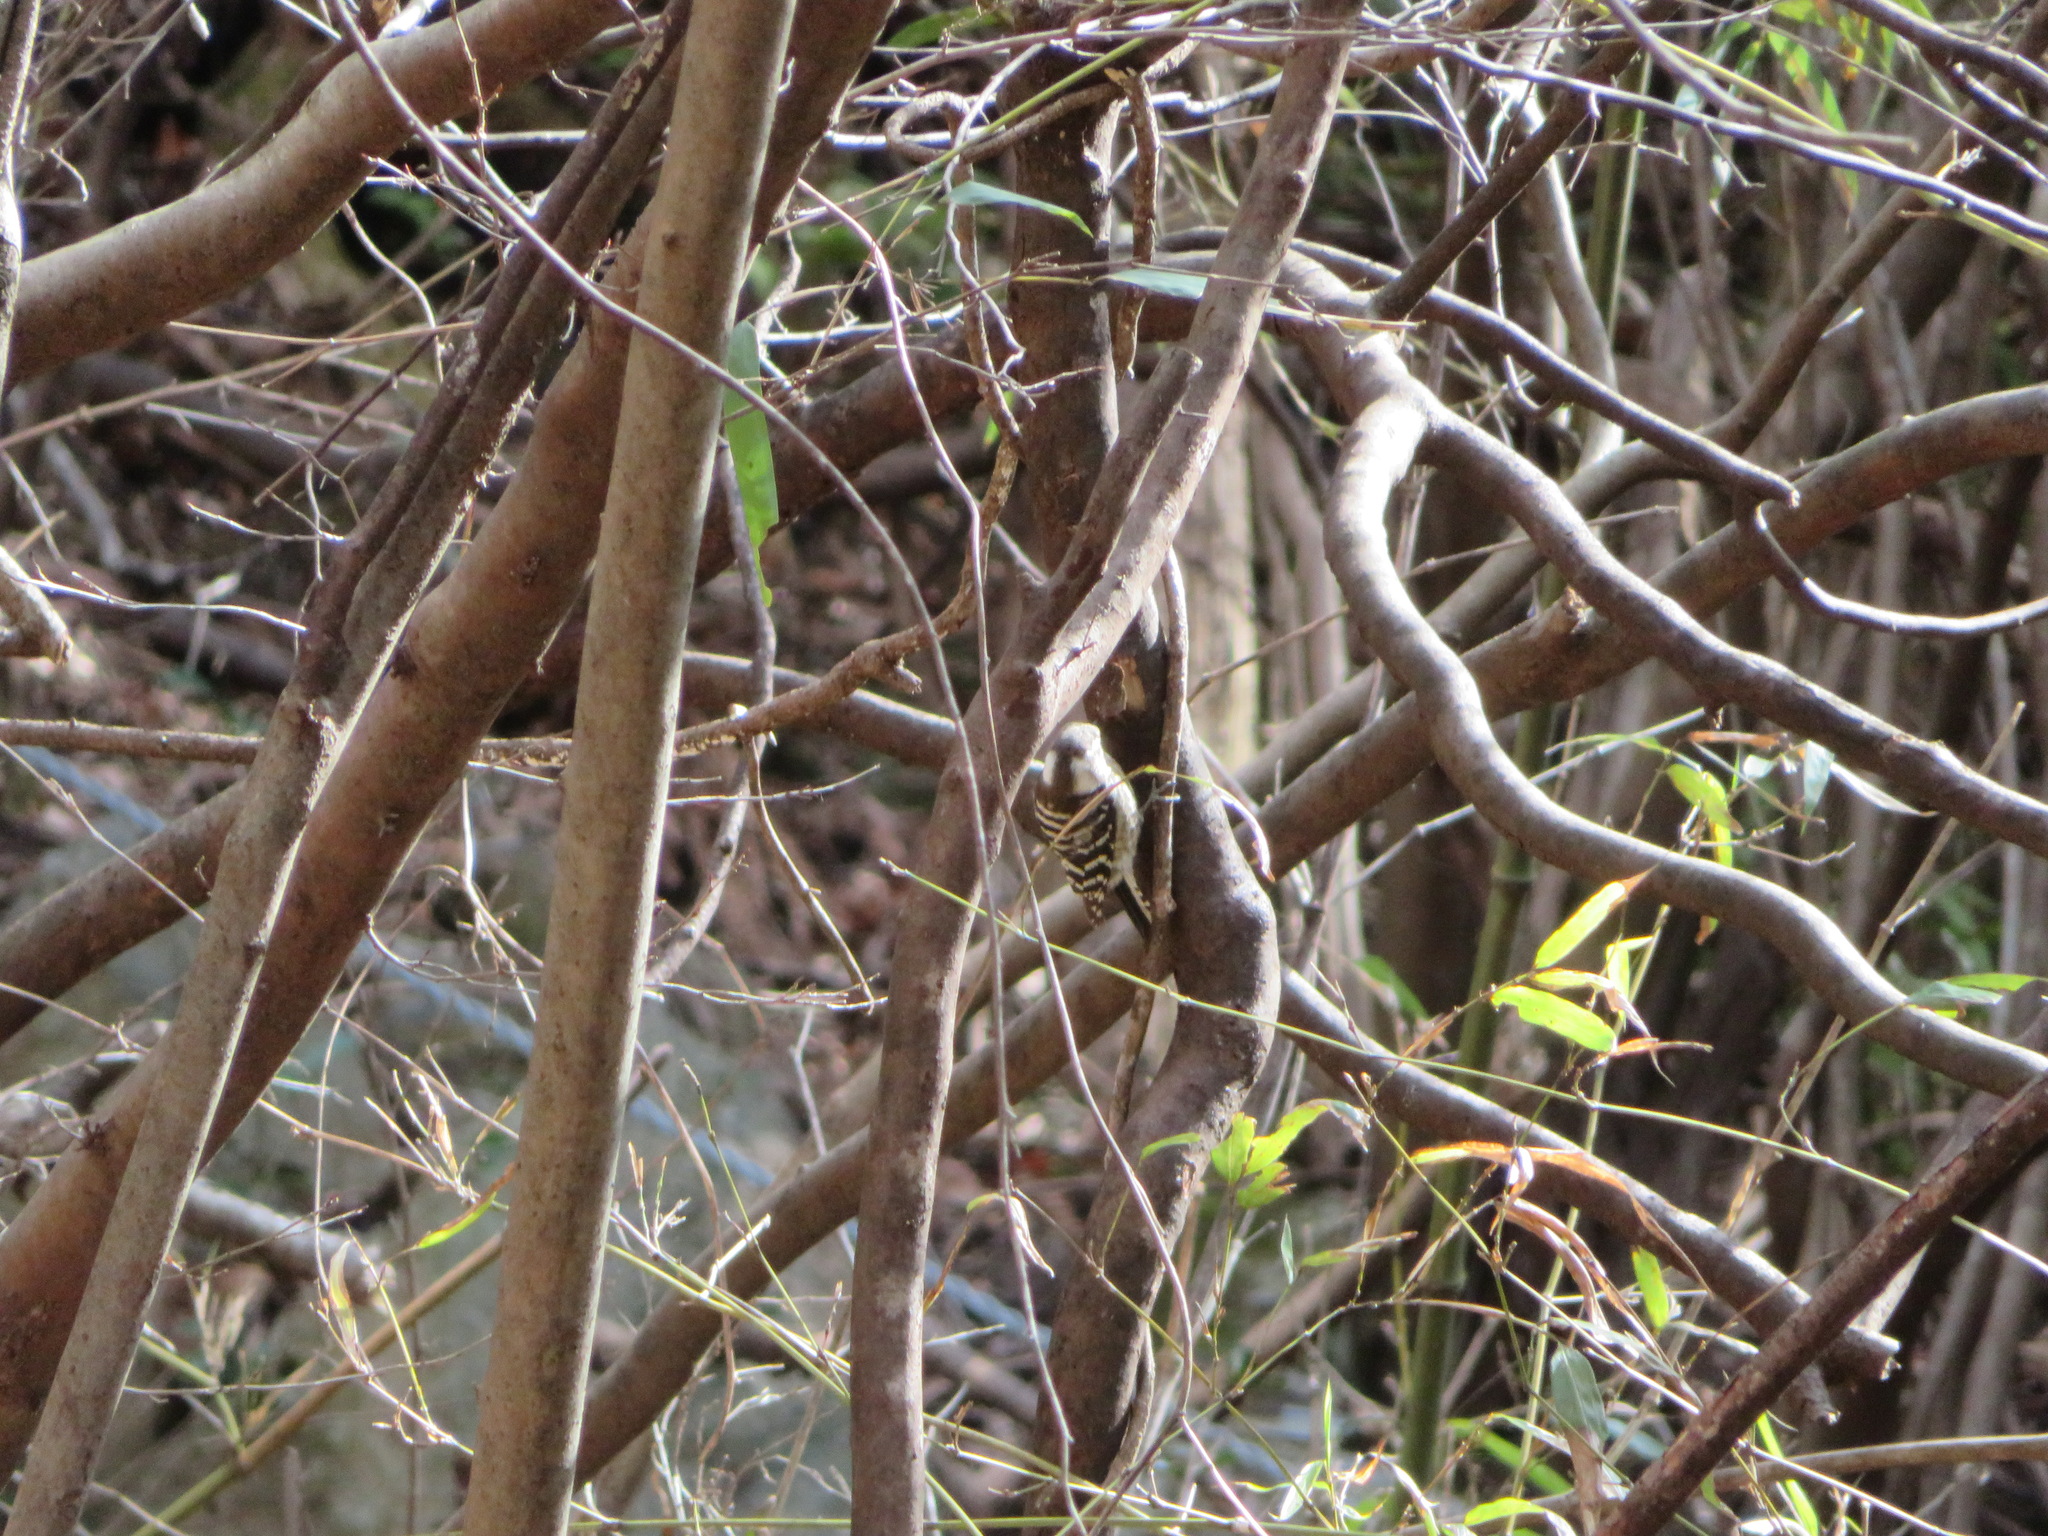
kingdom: Animalia
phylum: Chordata
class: Aves
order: Piciformes
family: Picidae
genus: Yungipicus
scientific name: Yungipicus kizuki
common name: Japanese pygmy woodpecker
